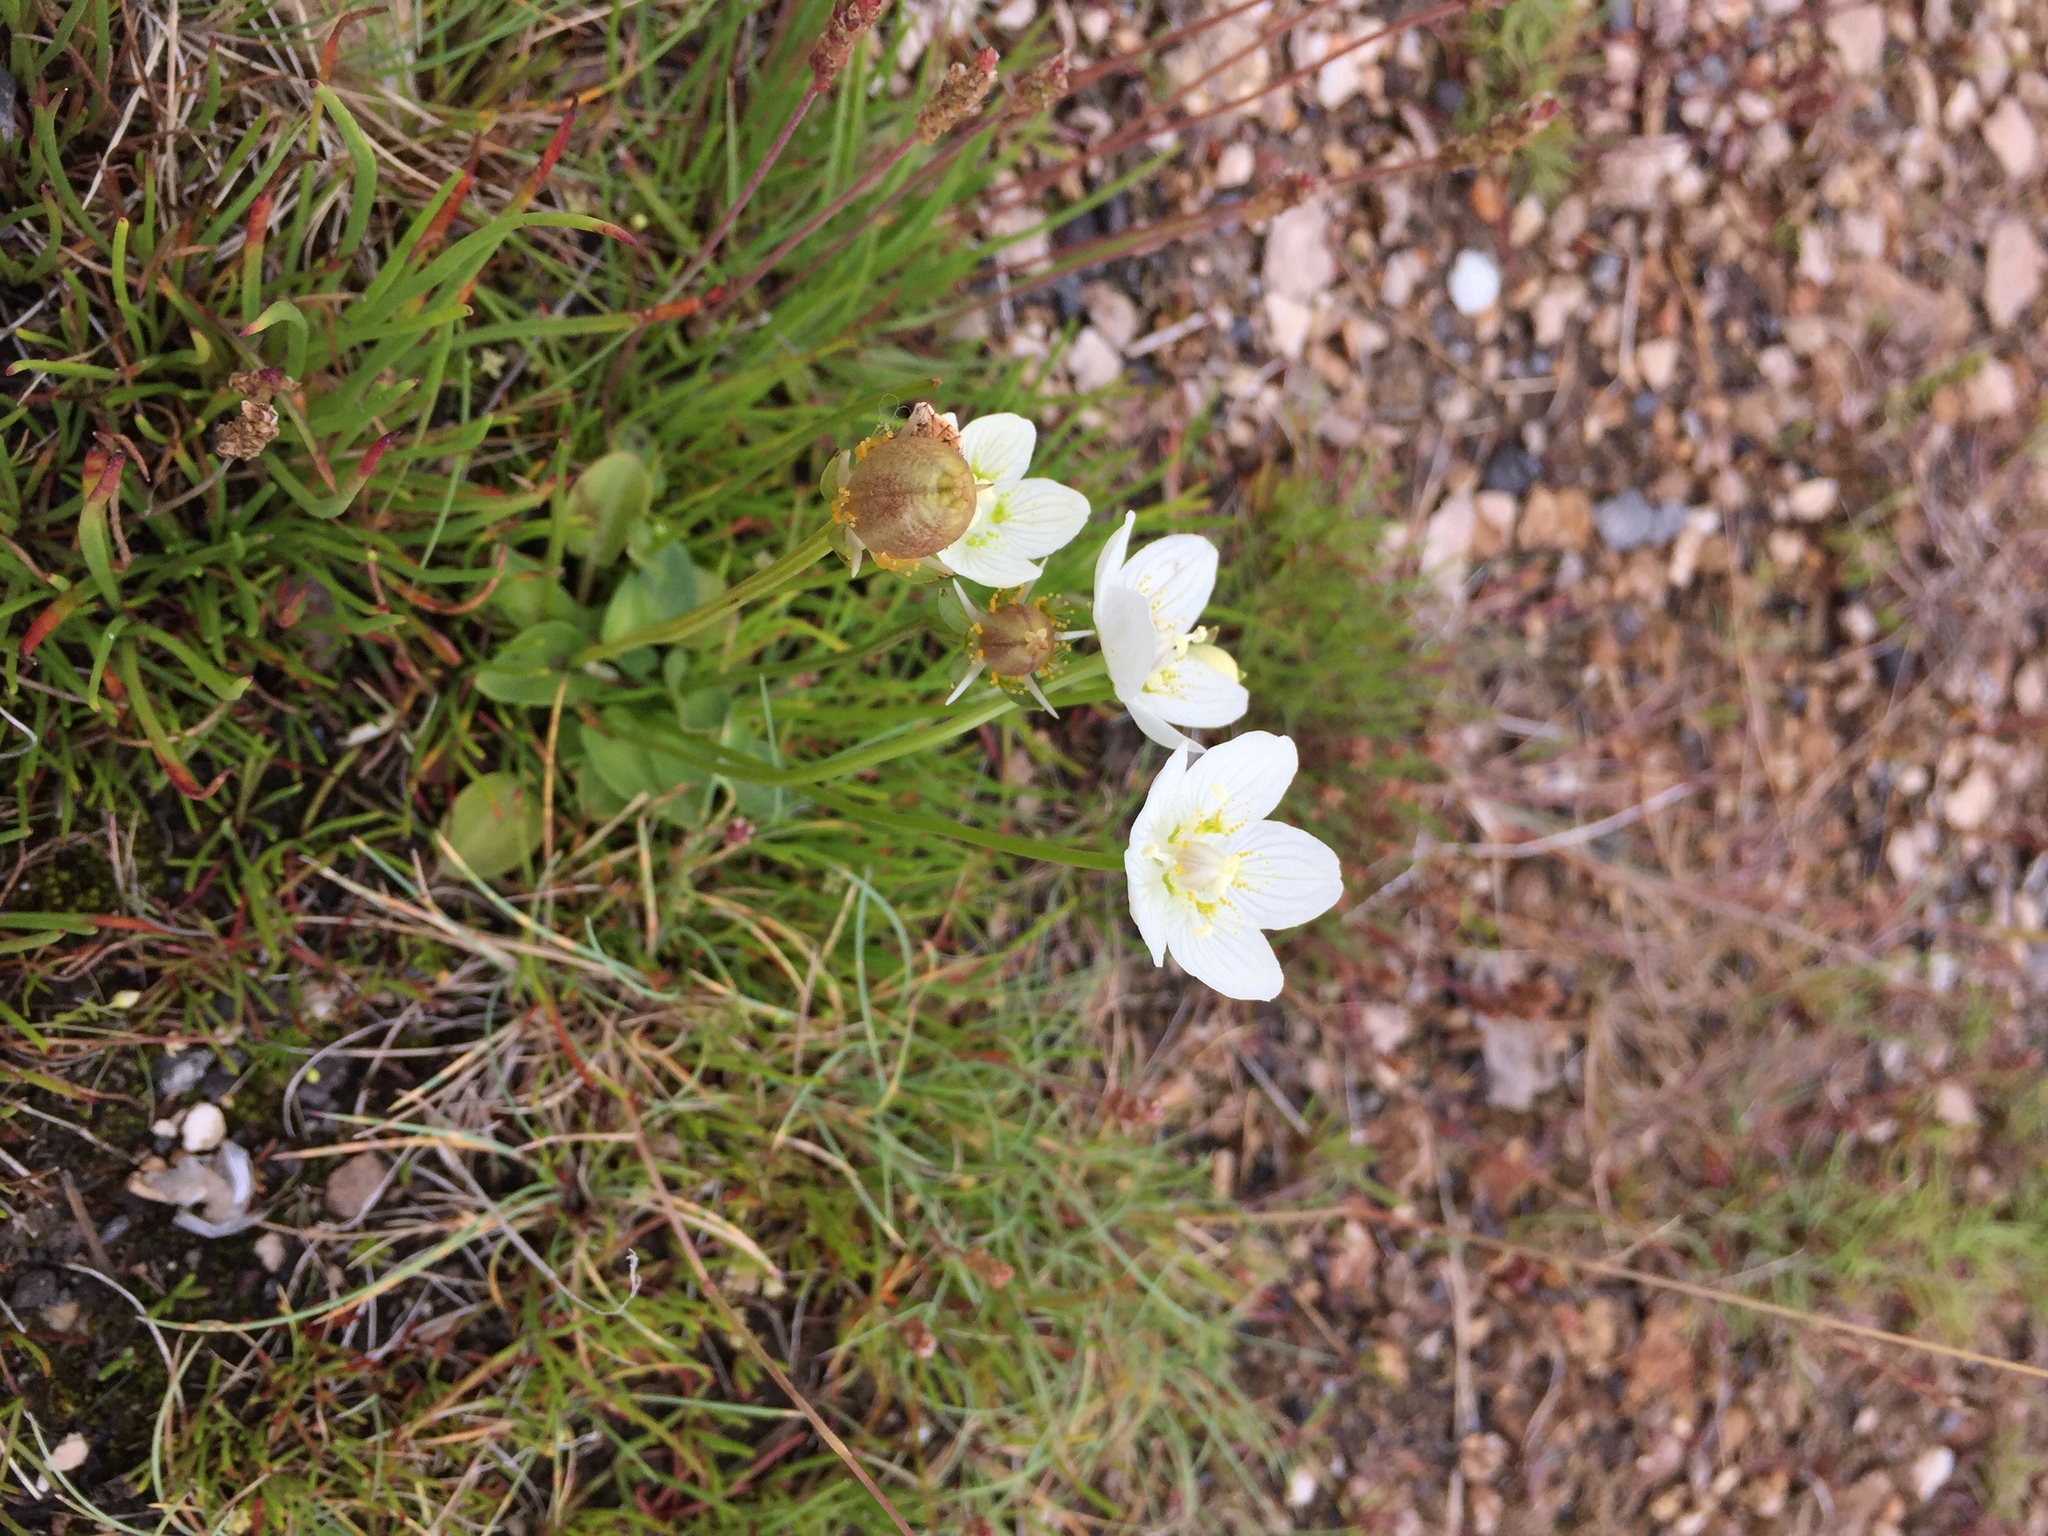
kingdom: Plantae
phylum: Tracheophyta
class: Magnoliopsida
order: Celastrales
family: Parnassiaceae
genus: Parnassia
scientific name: Parnassia palustris
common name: Grass-of-parnassus
